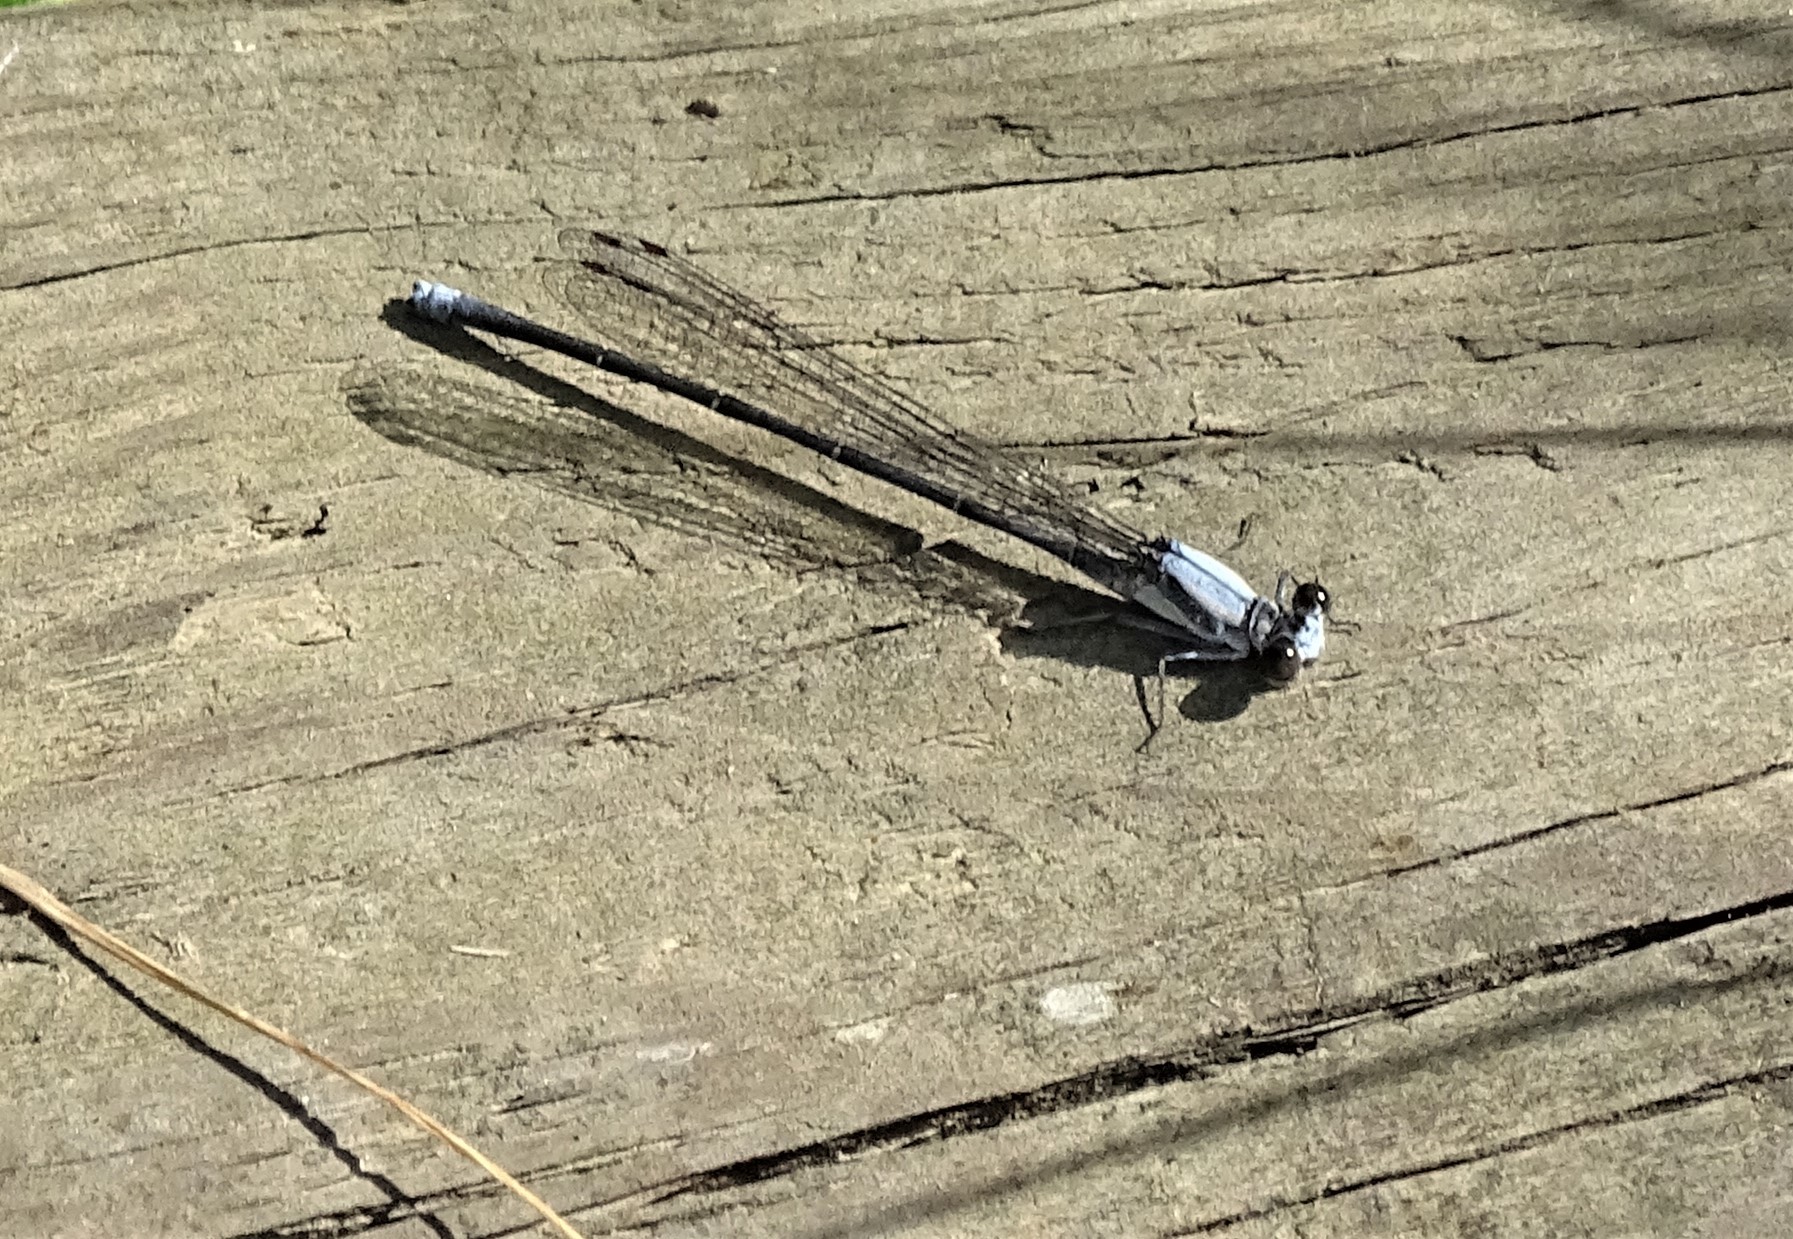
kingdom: Animalia
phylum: Arthropoda
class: Insecta
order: Odonata
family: Coenagrionidae
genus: Argia
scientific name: Argia moesta
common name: Powdered dancer
